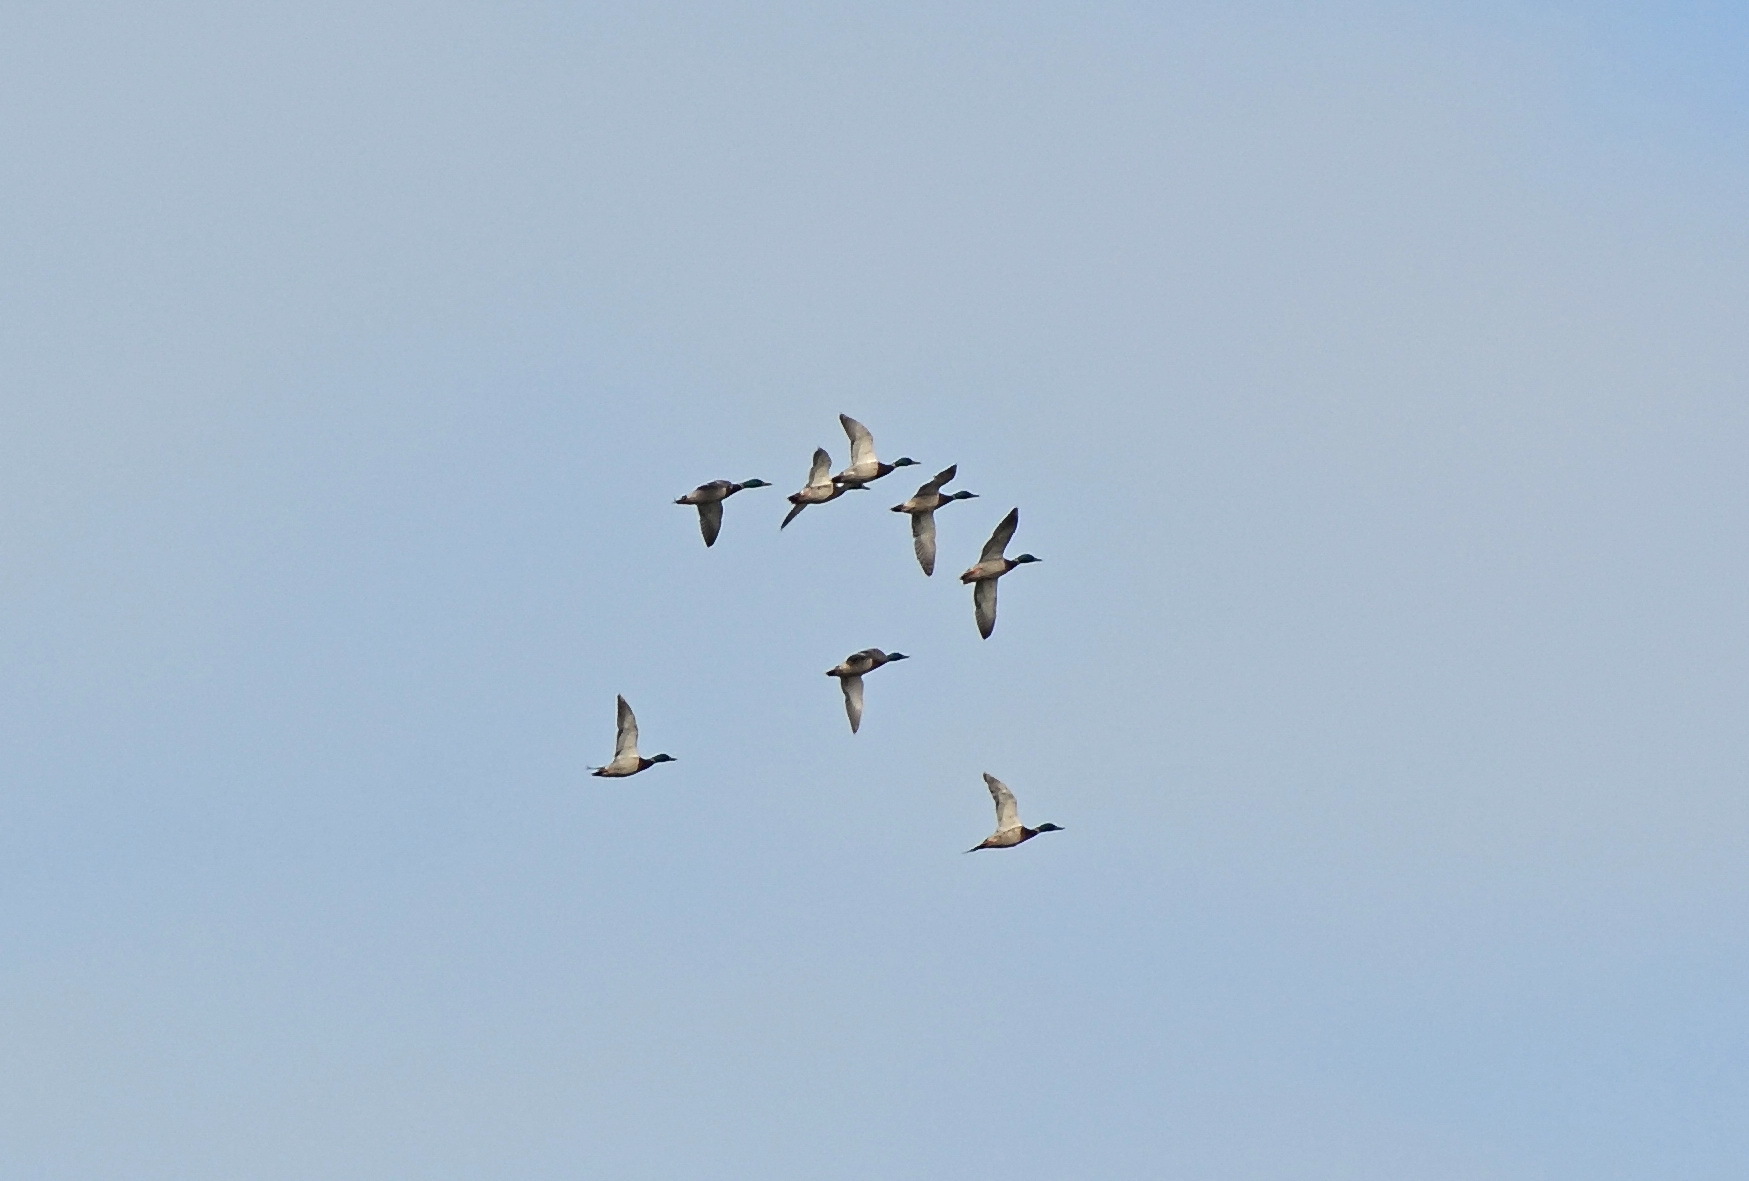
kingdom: Animalia
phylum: Chordata
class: Aves
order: Anseriformes
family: Anatidae
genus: Anas
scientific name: Anas platyrhynchos
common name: Mallard
